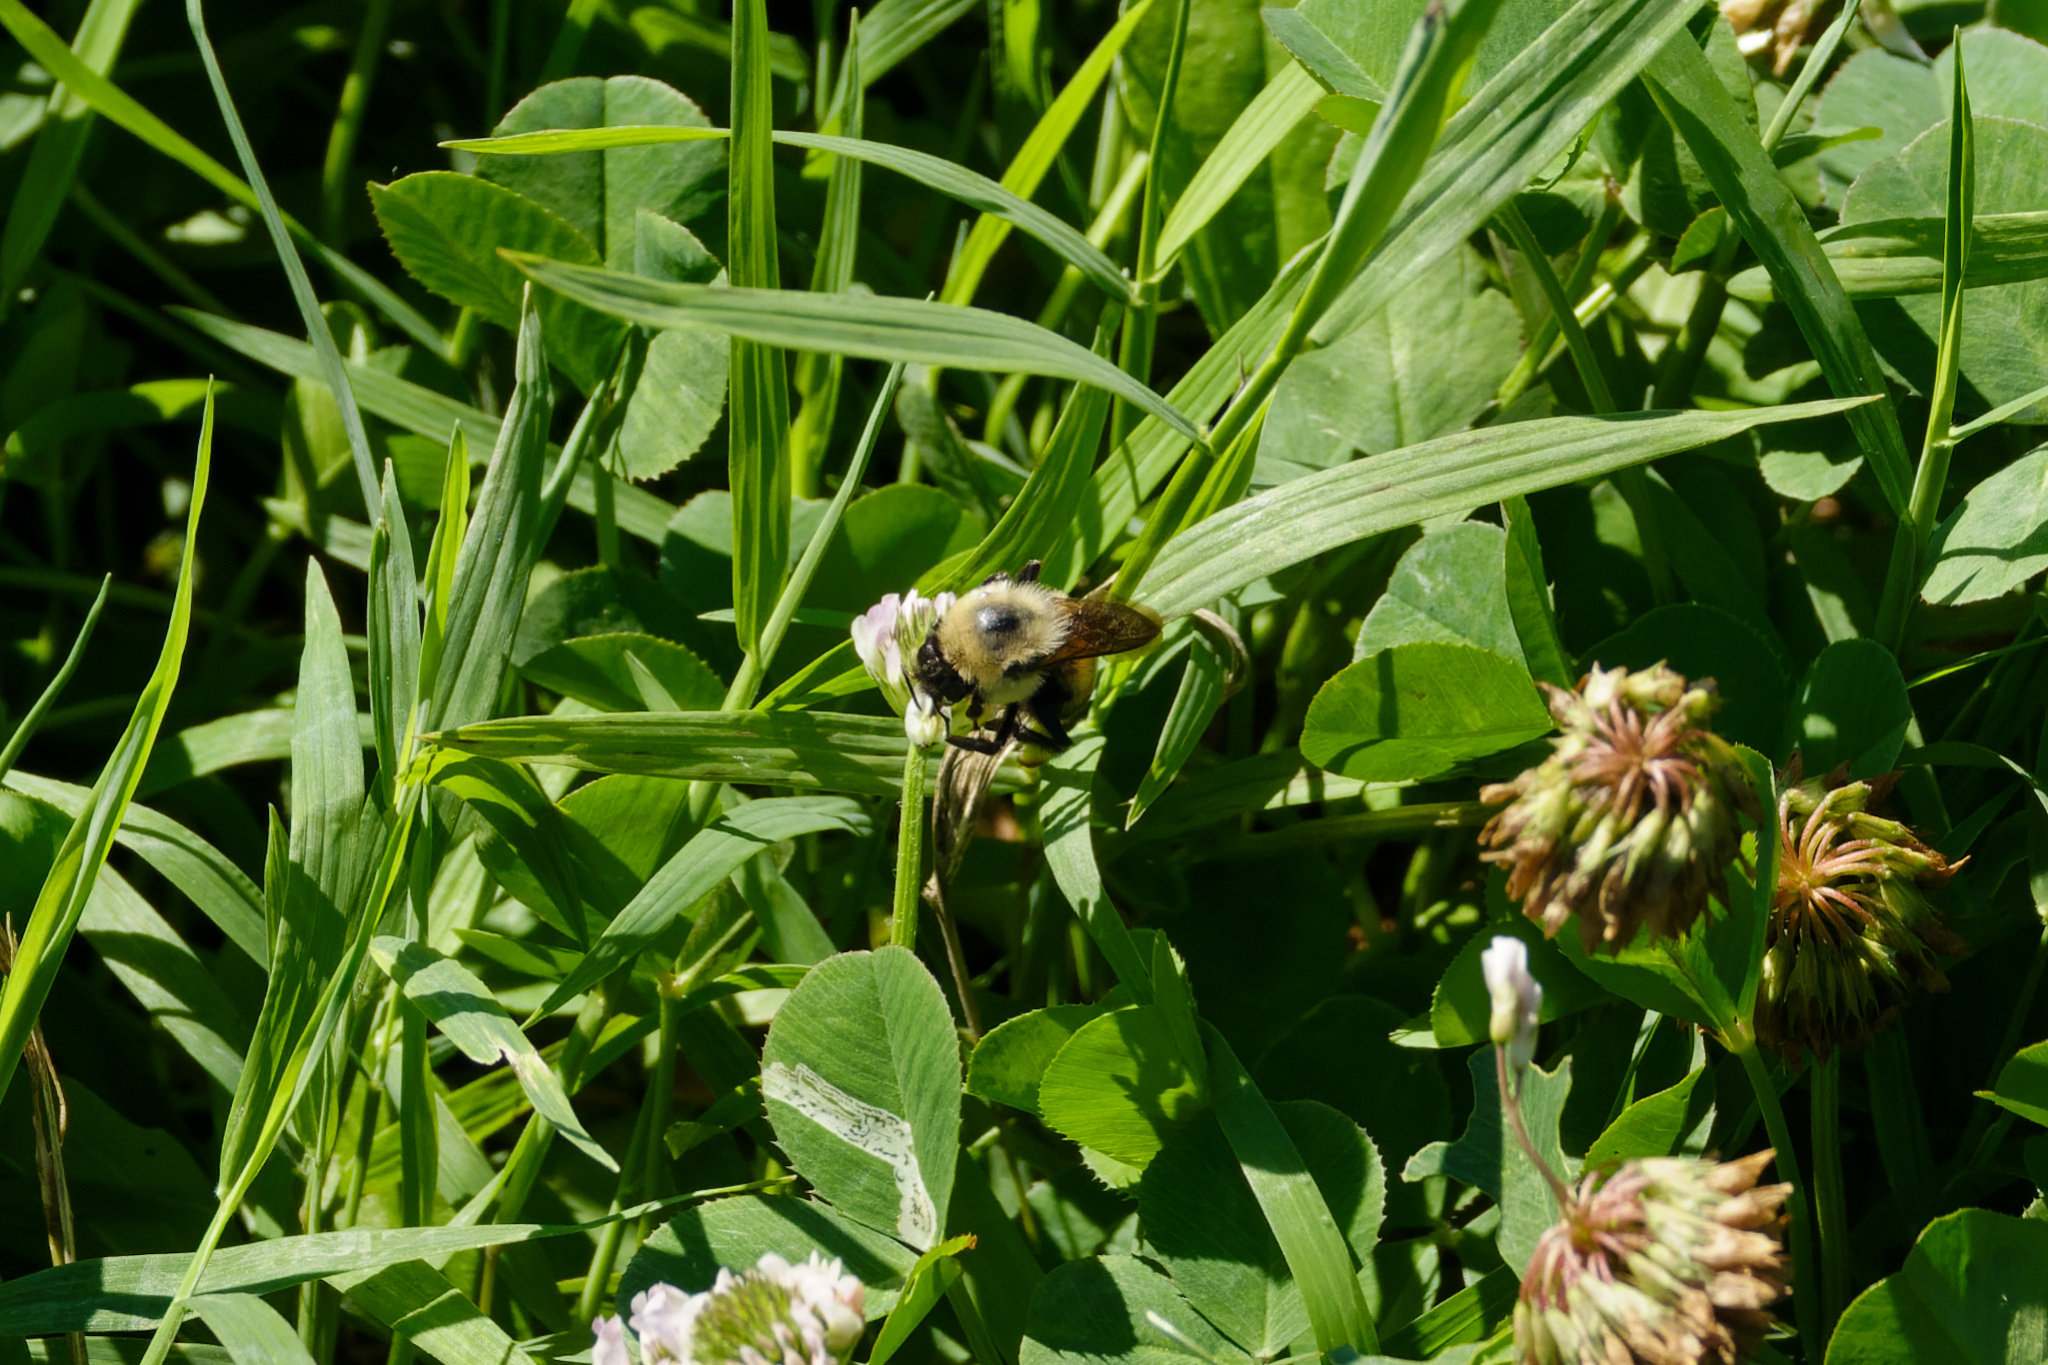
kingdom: Animalia
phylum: Arthropoda
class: Insecta
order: Hymenoptera
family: Apidae
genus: Bombus
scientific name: Bombus griseocollis
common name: Brown-belted bumble bee
